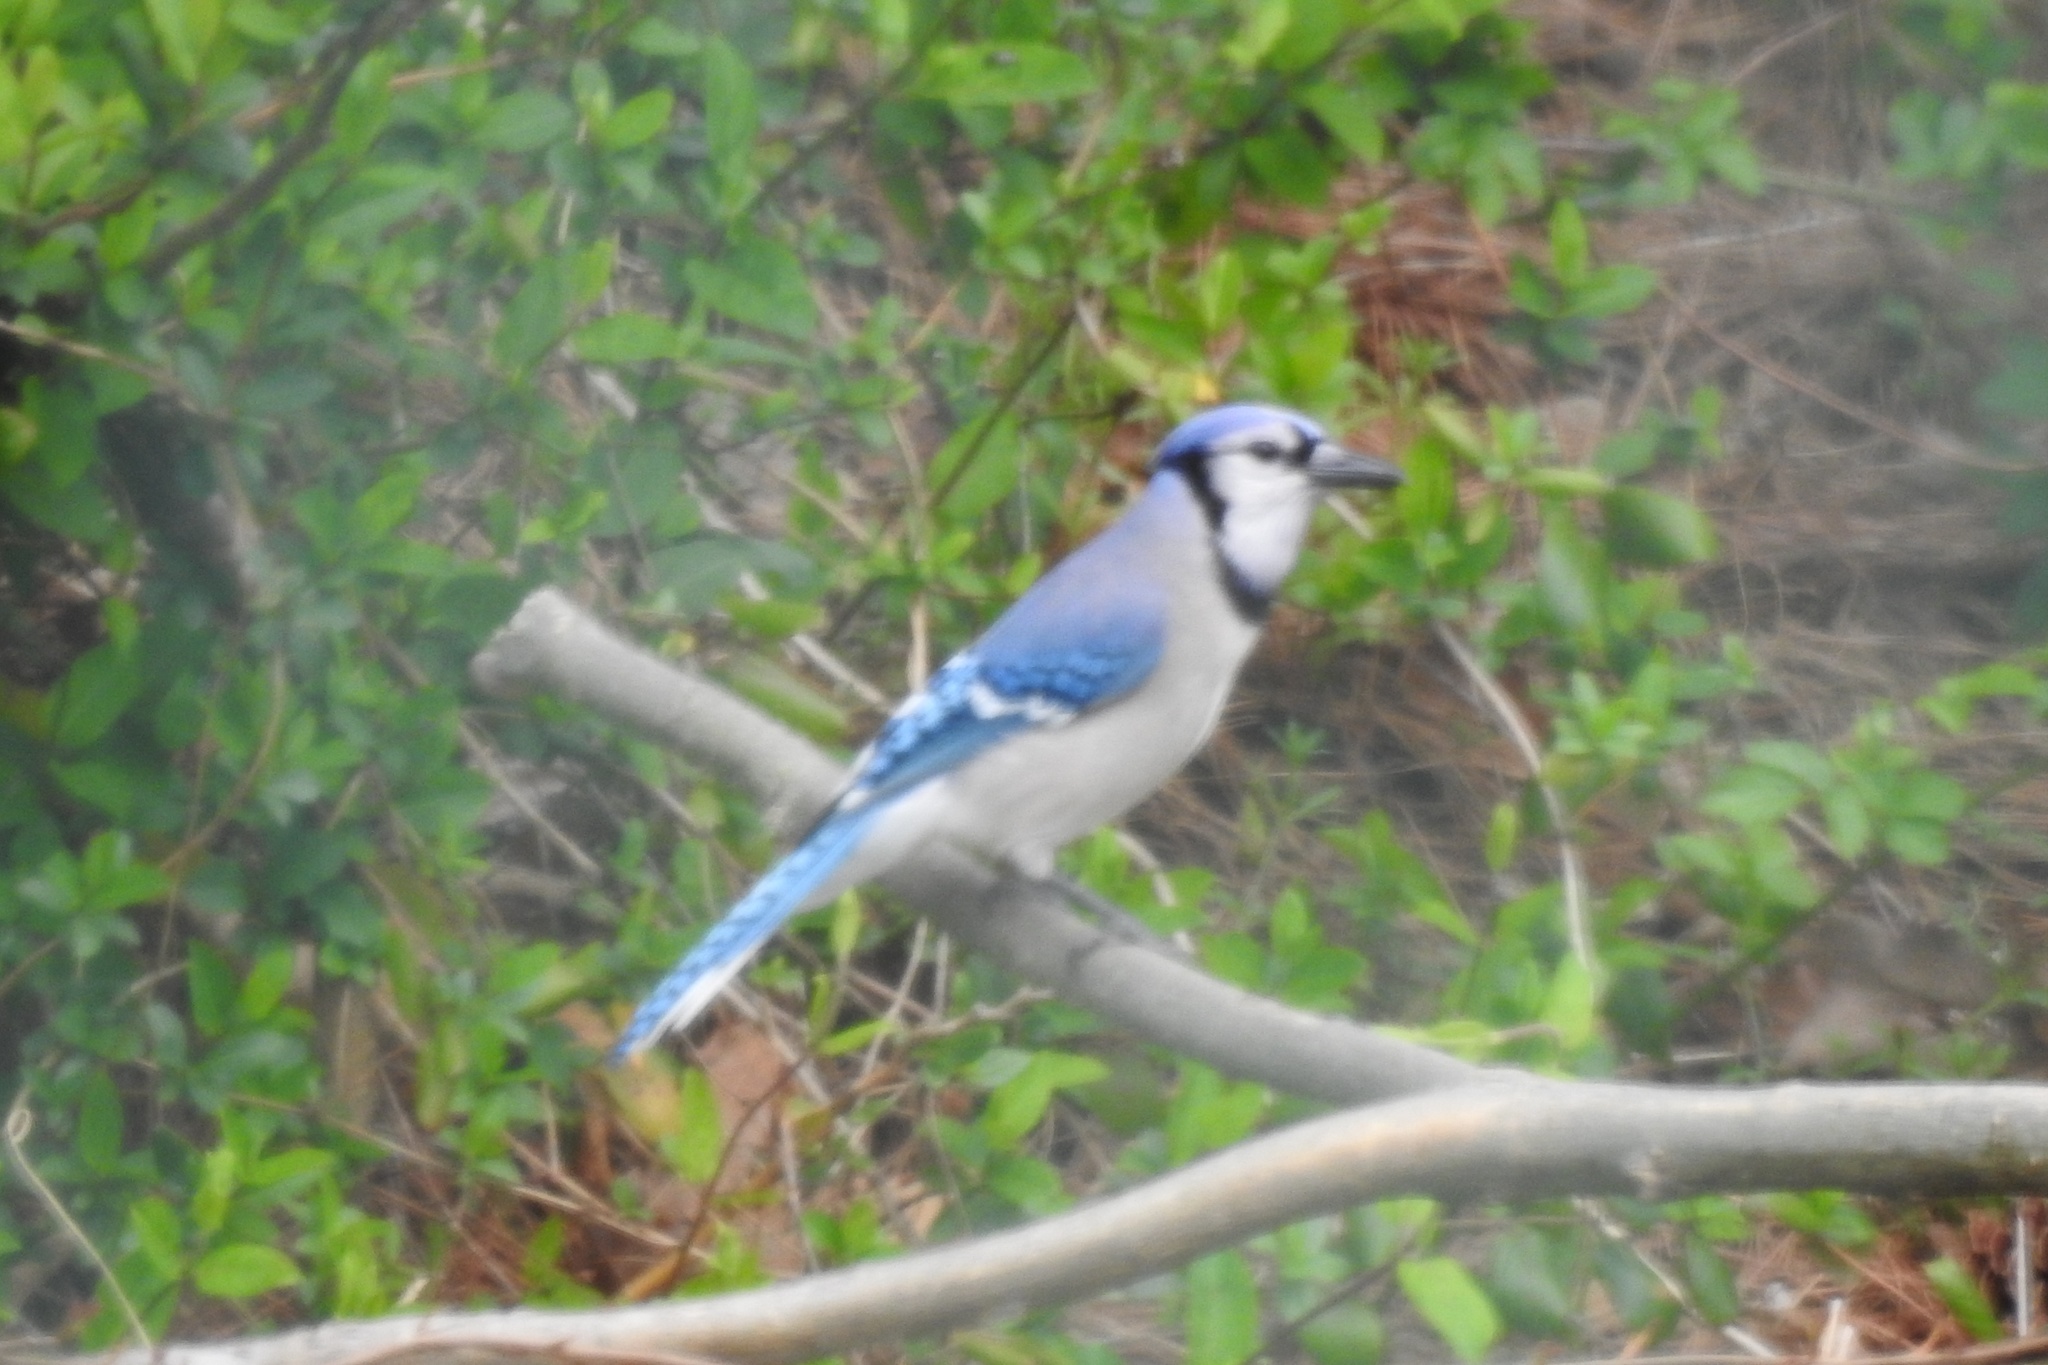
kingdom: Animalia
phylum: Chordata
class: Aves
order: Passeriformes
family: Corvidae
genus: Cyanocitta
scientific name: Cyanocitta cristata
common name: Blue jay
